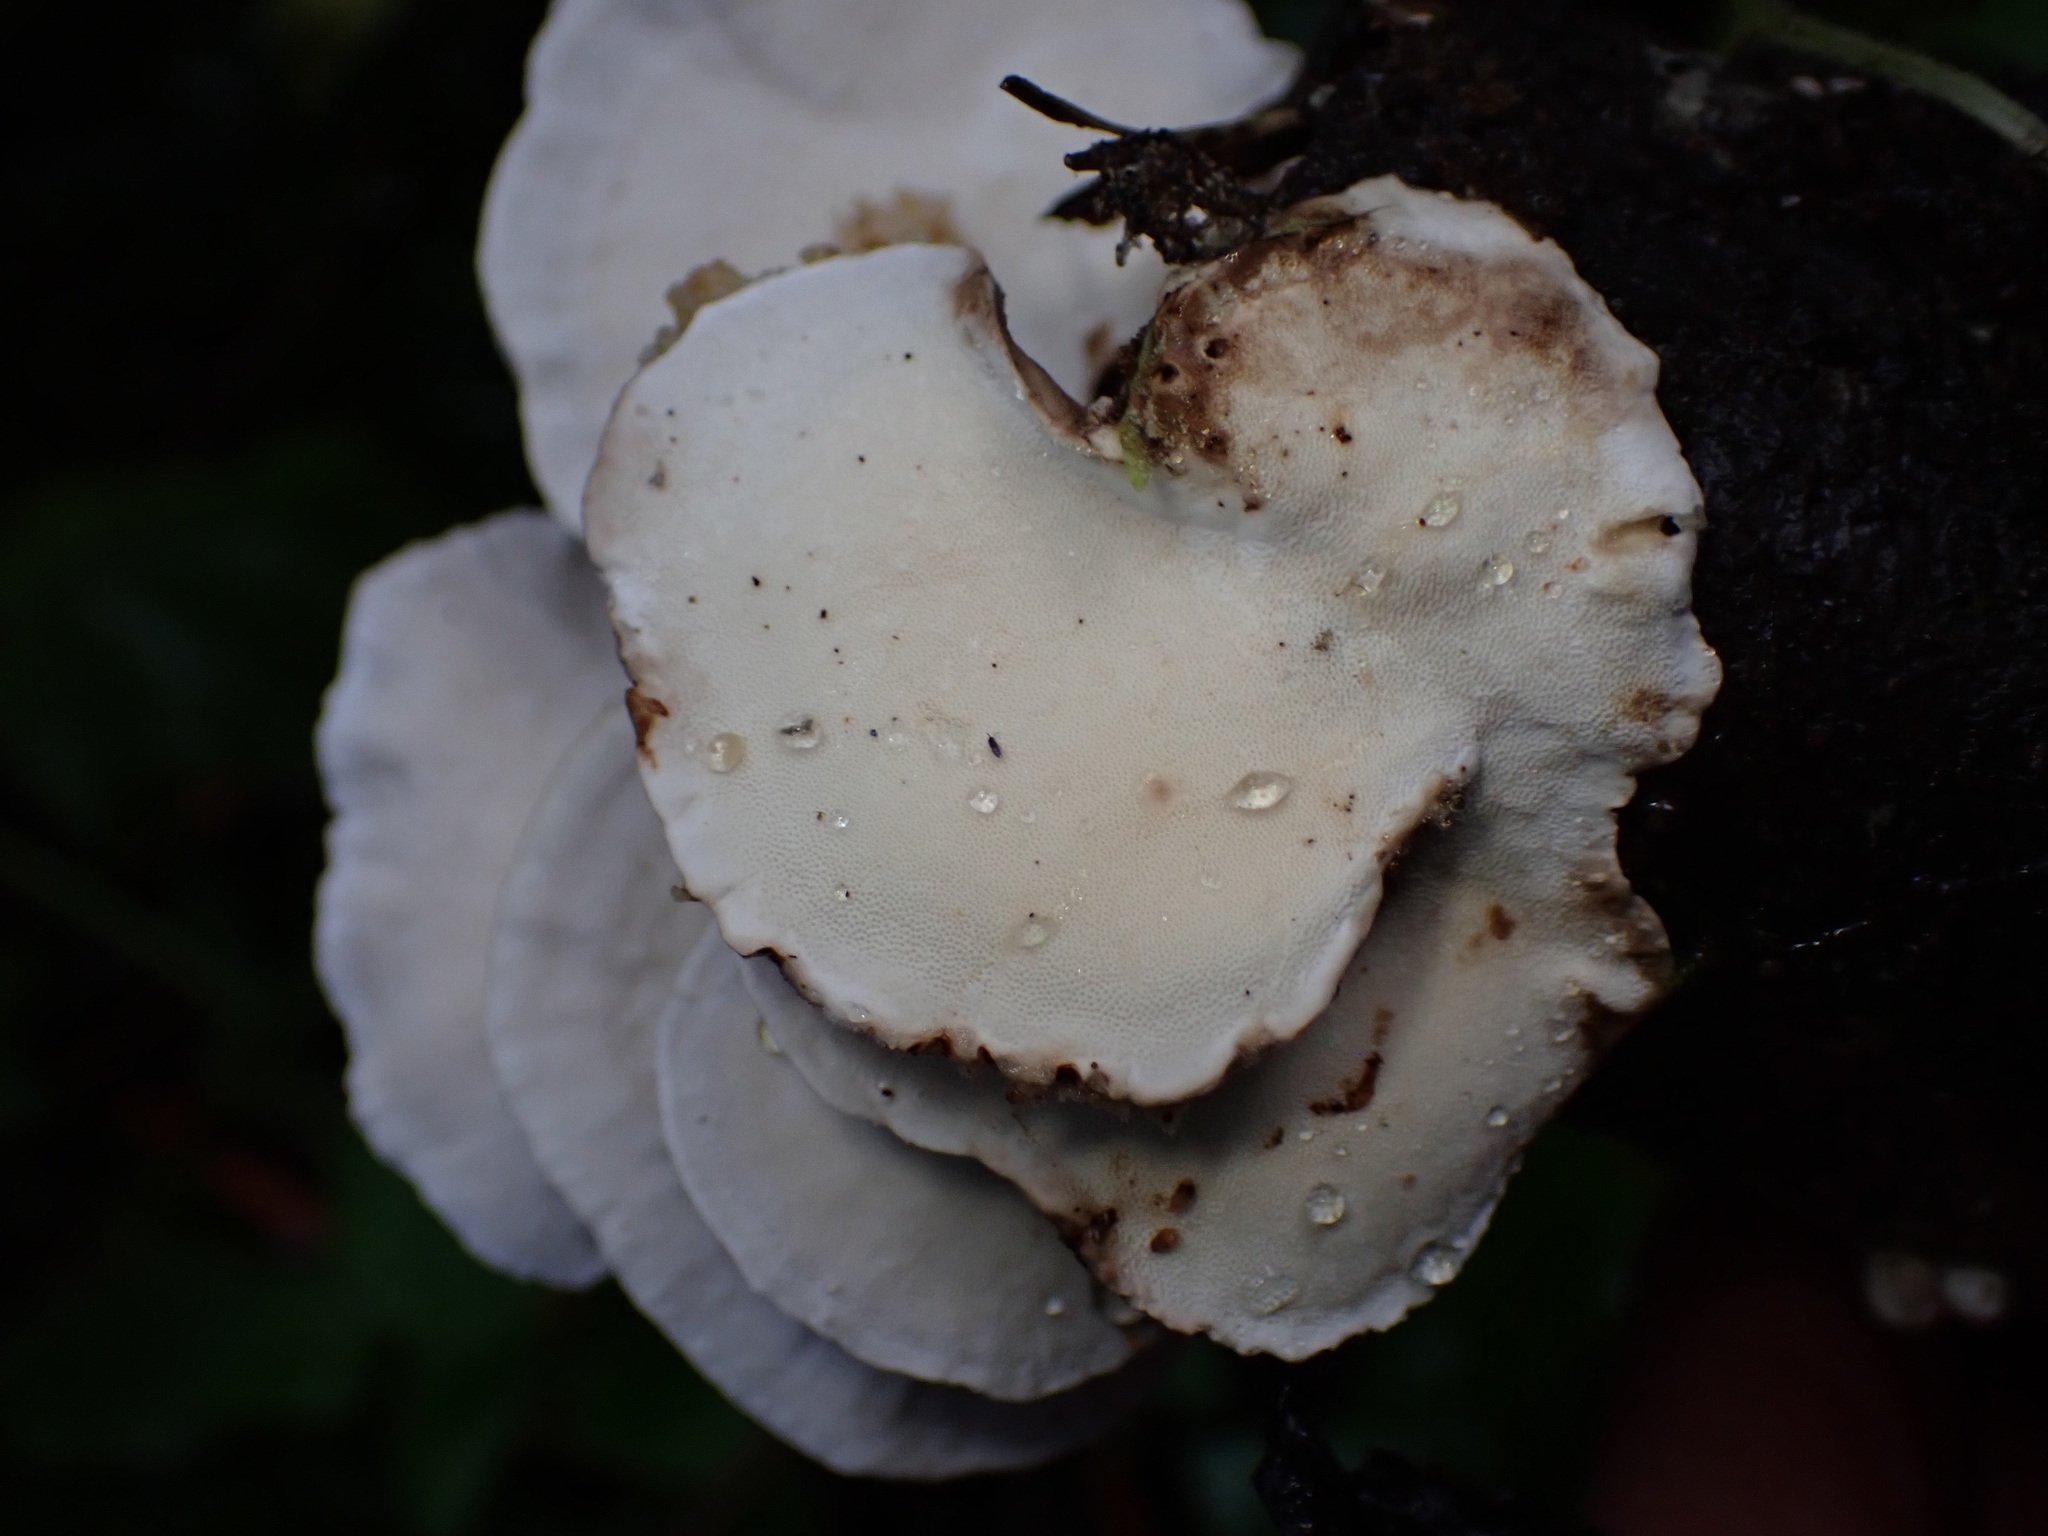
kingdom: Fungi
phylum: Basidiomycota
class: Agaricomycetes
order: Polyporales
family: Polyporaceae
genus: Trametes
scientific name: Trametes ochracea
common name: Ochre bracket
